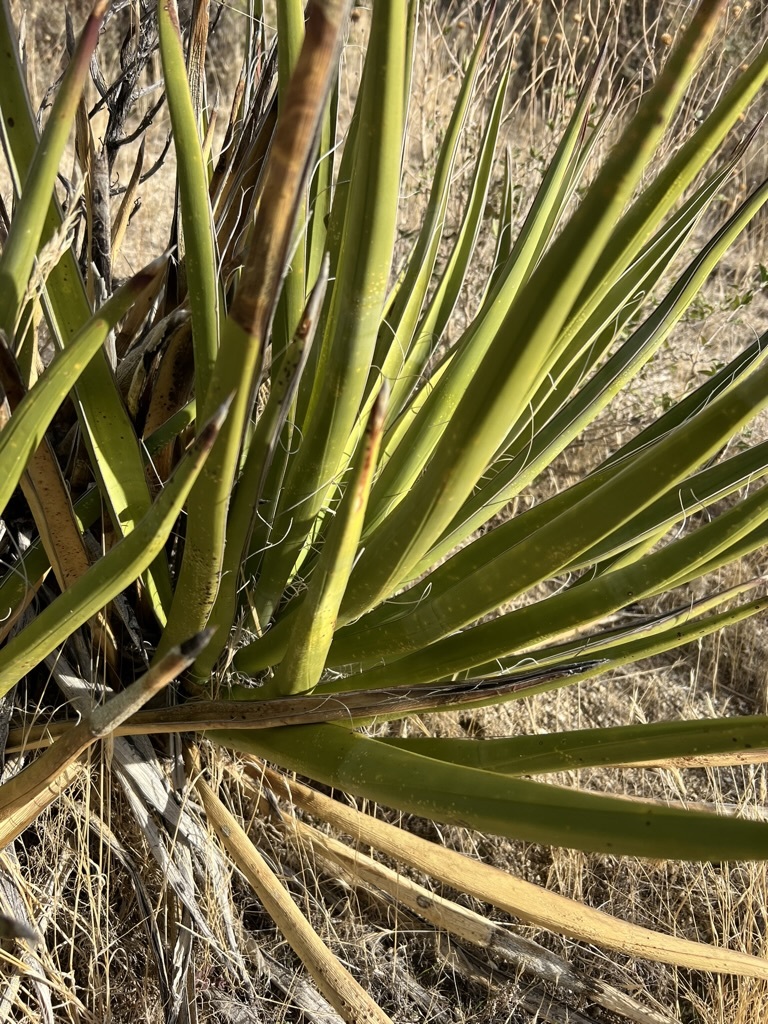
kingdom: Plantae
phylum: Tracheophyta
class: Liliopsida
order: Asparagales
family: Asparagaceae
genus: Yucca
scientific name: Yucca schidigera
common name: Mojave yucca
